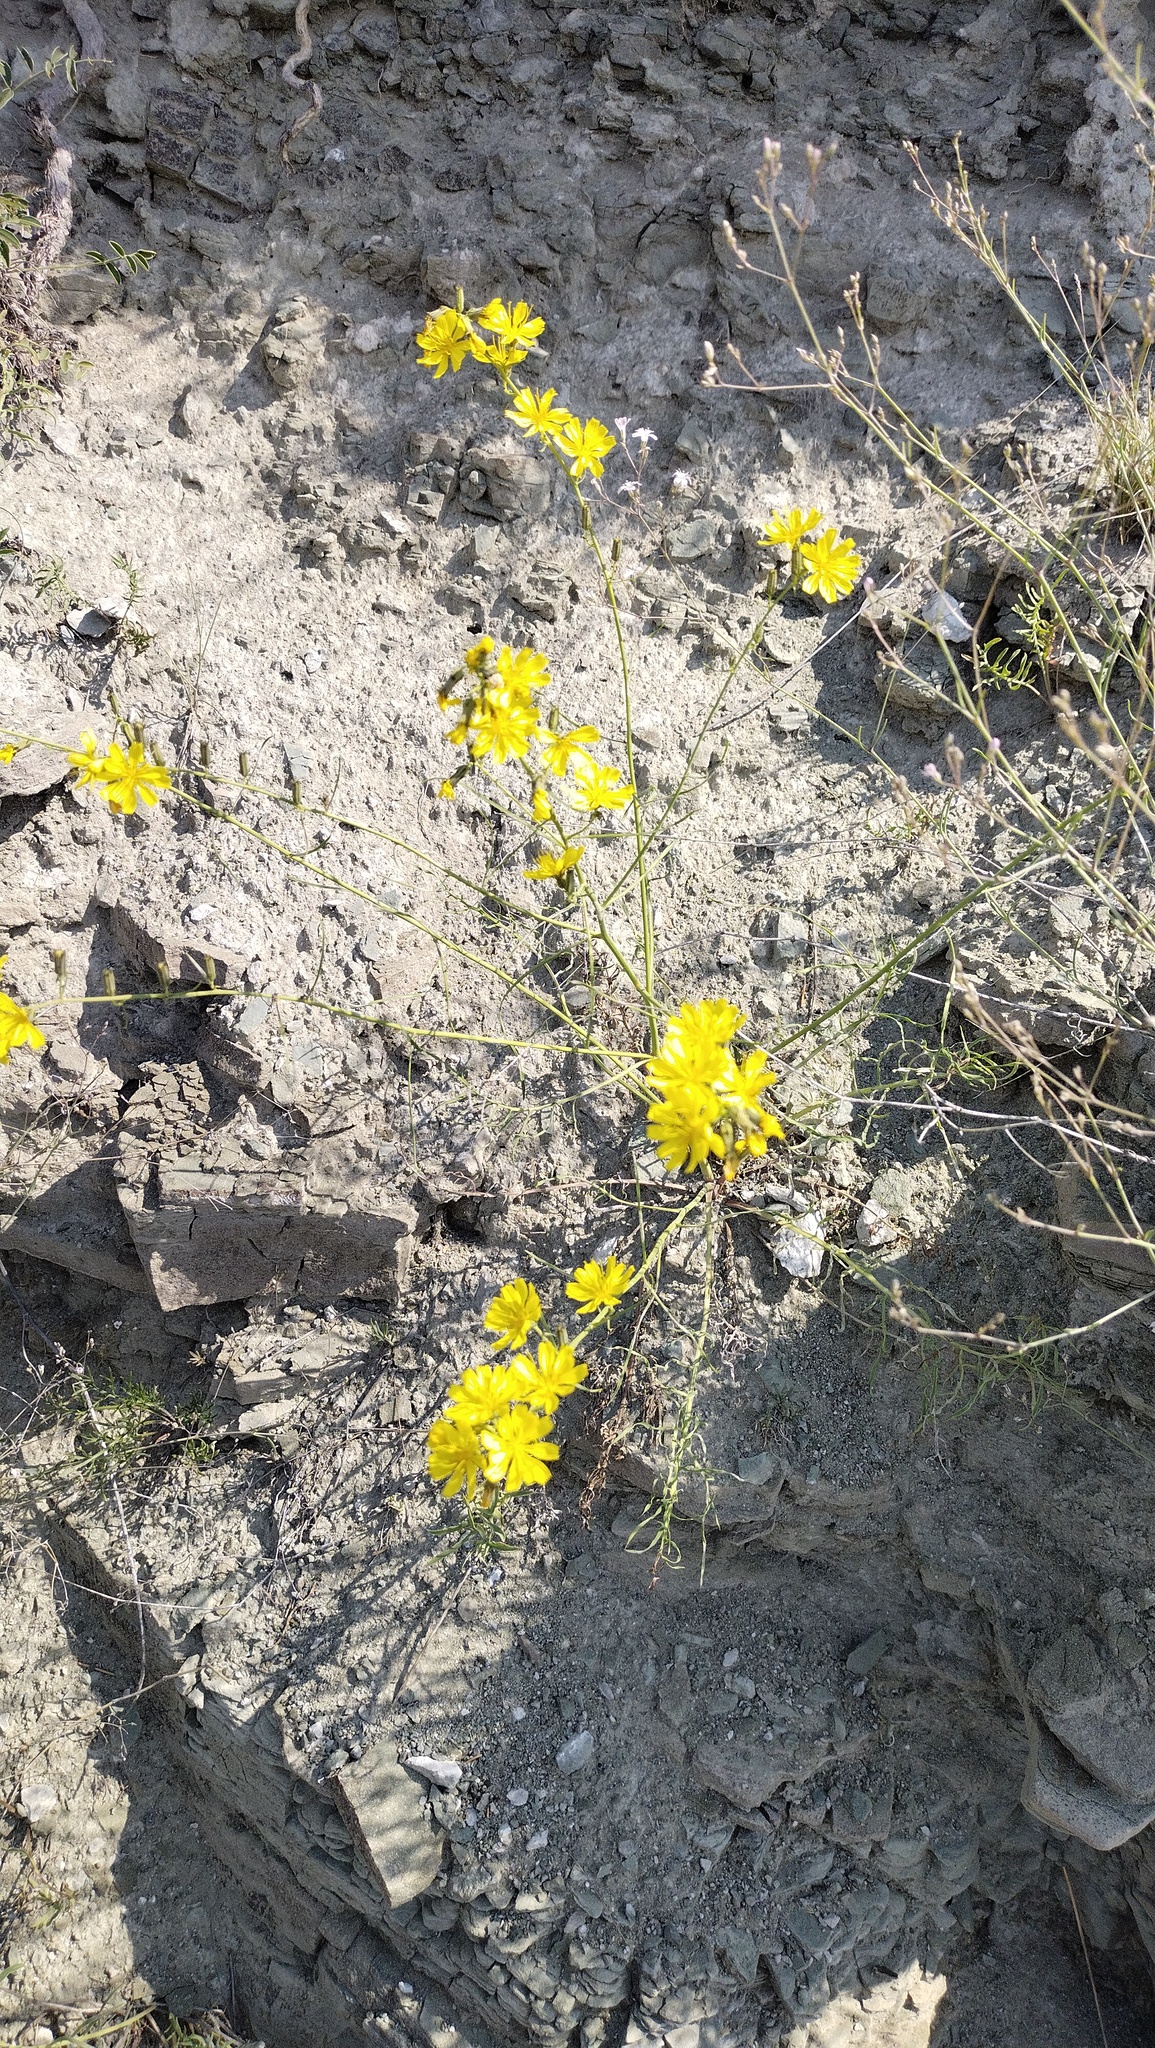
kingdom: Plantae
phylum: Tracheophyta
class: Magnoliopsida
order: Asterales
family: Asteraceae
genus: Crepidiastrum
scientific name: Crepidiastrum tenuifolium
